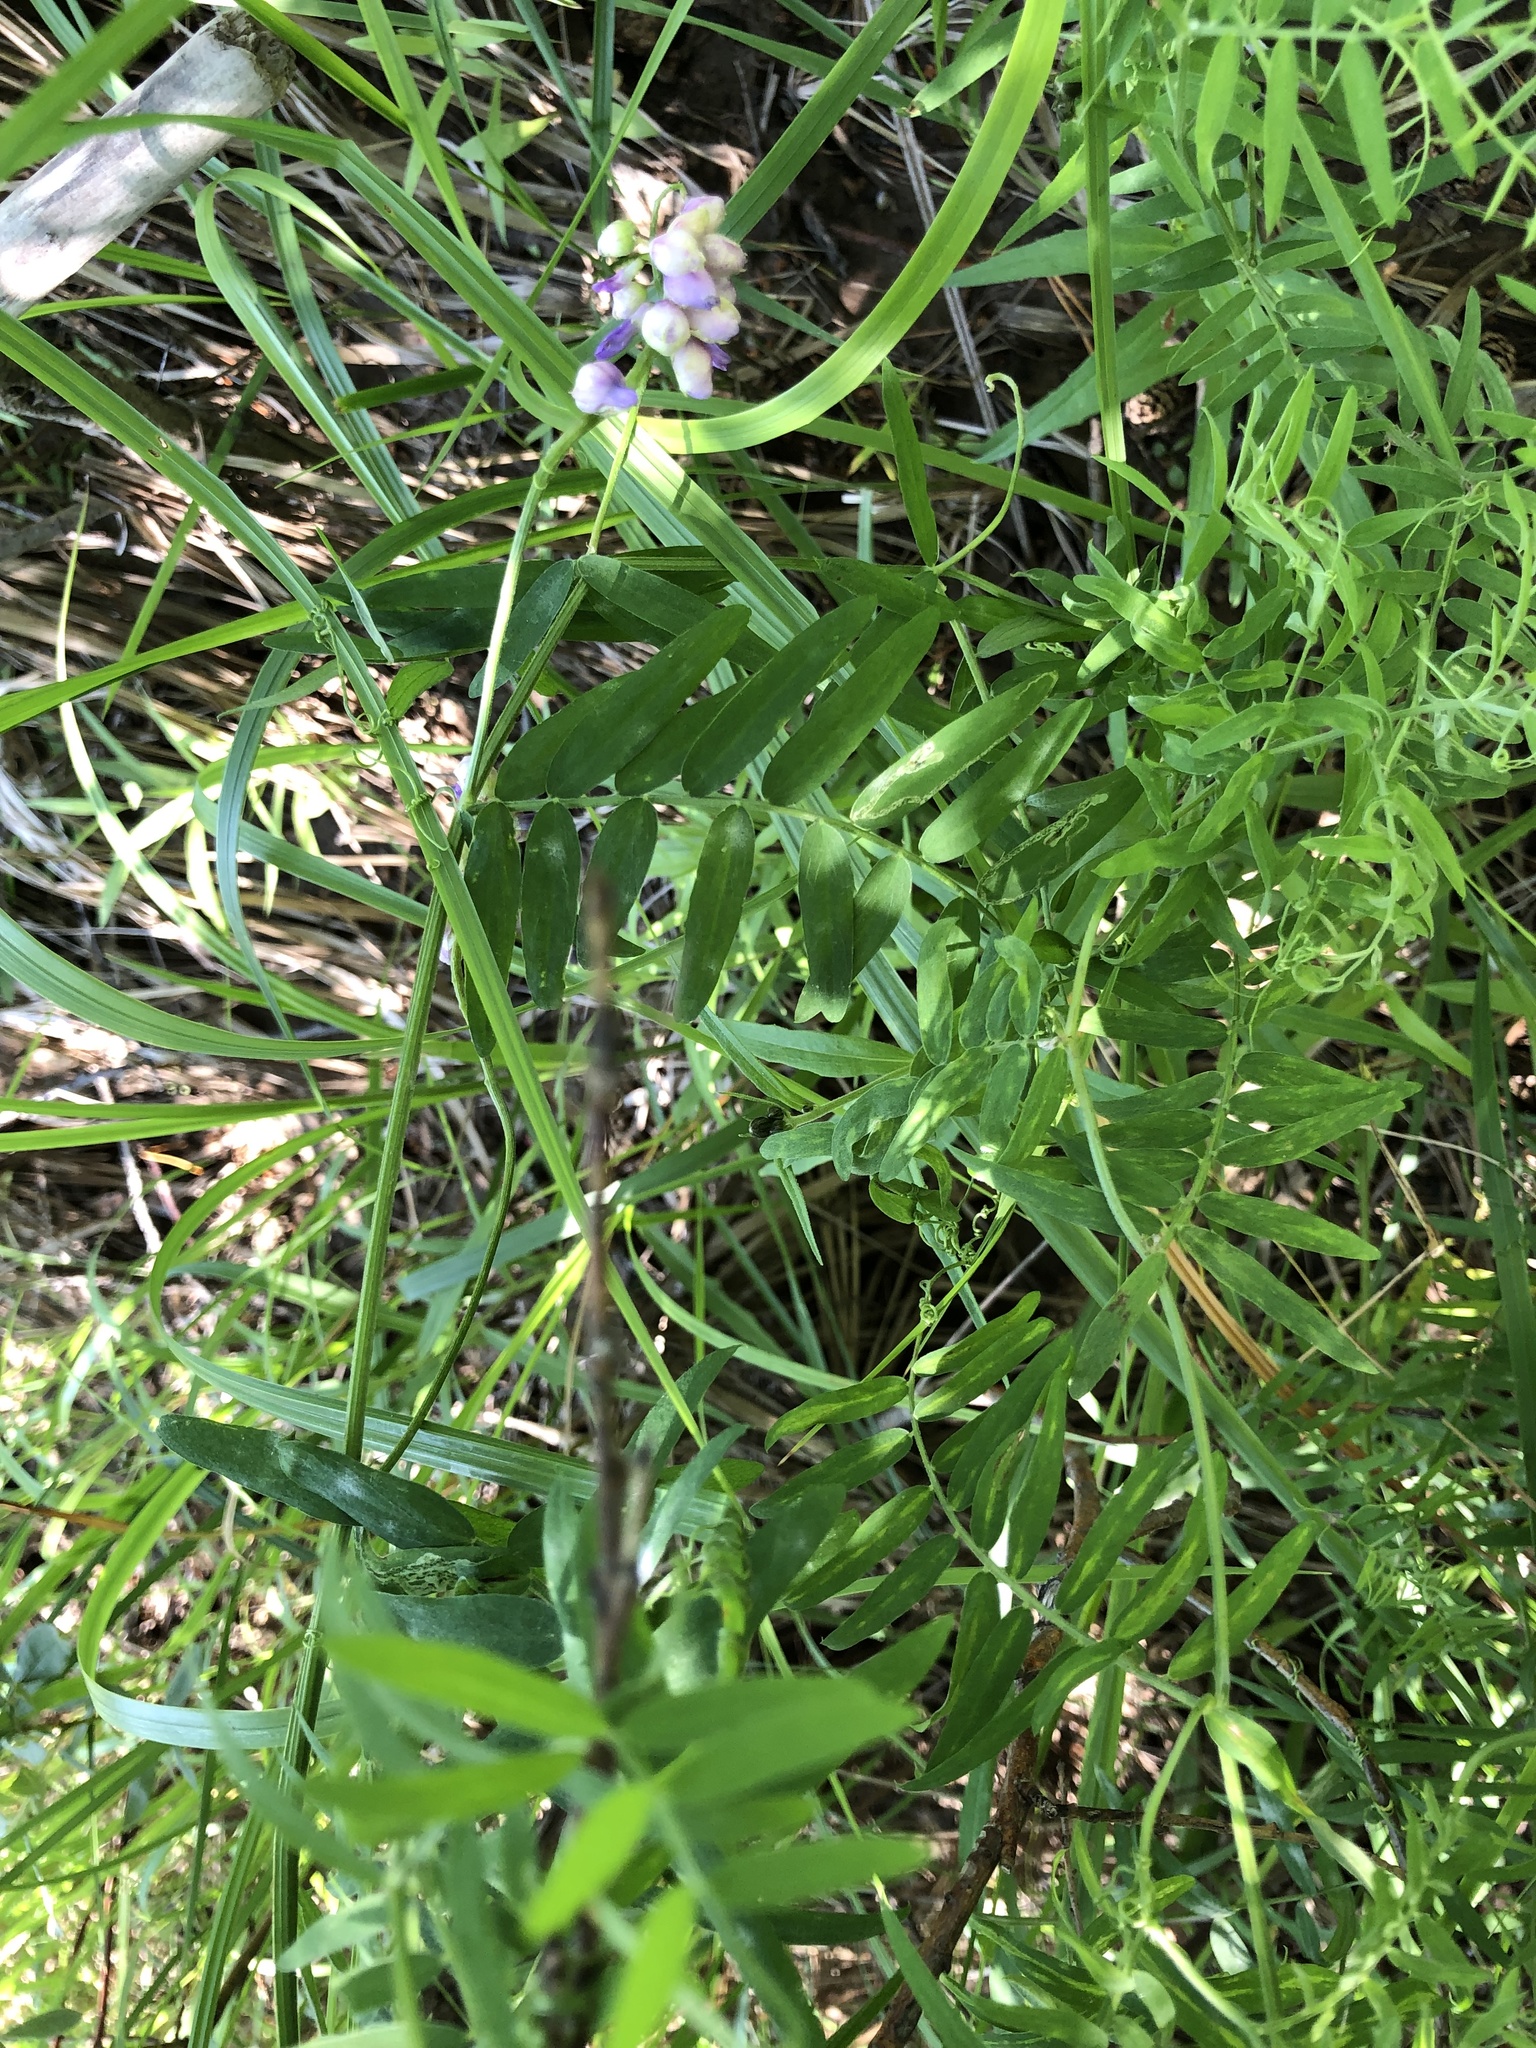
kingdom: Plantae
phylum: Tracheophyta
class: Magnoliopsida
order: Fabales
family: Fabaceae
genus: Vicia
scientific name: Vicia cracca
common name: Bird vetch
